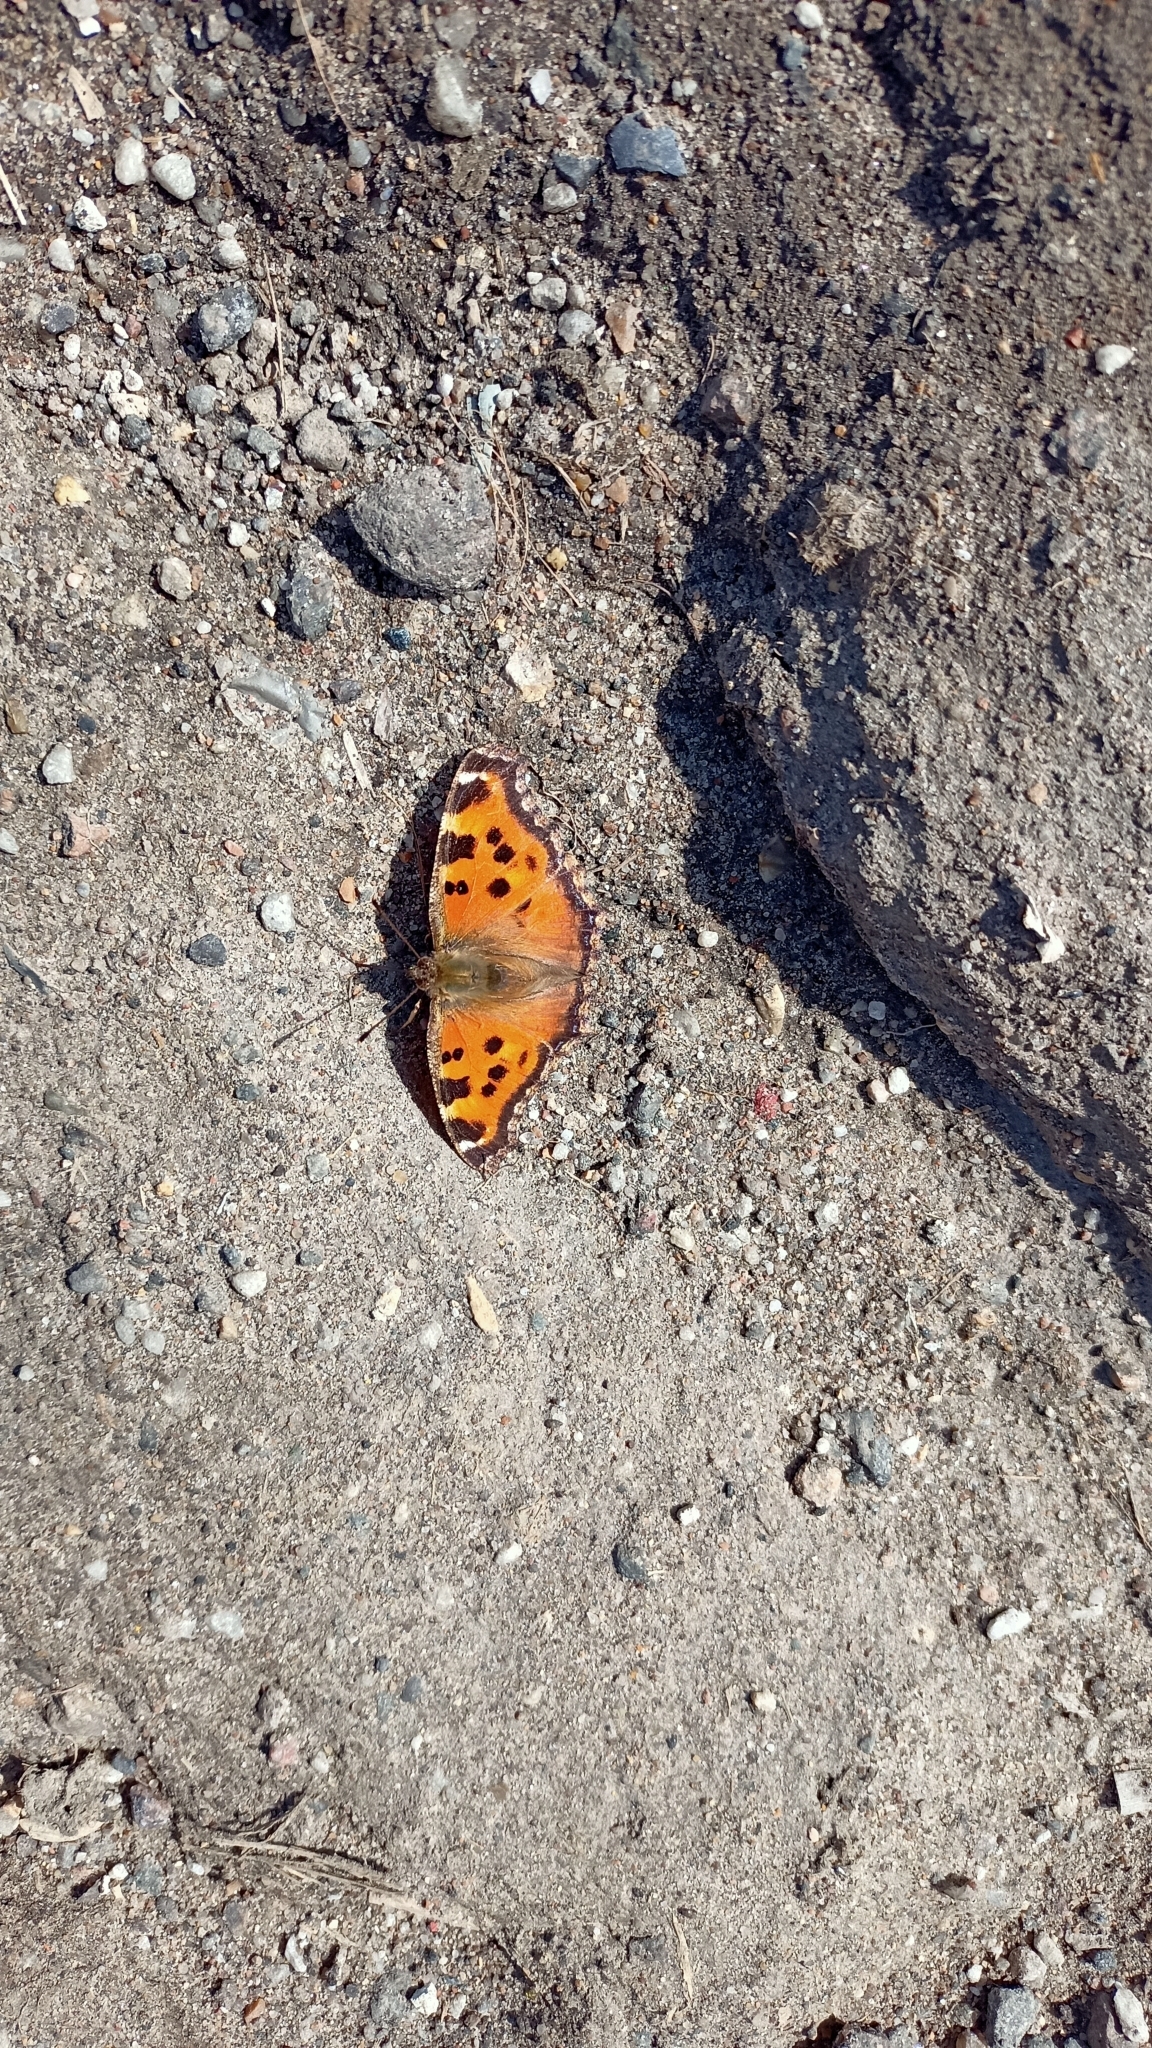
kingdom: Animalia
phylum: Arthropoda
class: Insecta
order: Lepidoptera
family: Nymphalidae
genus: Nymphalis
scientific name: Nymphalis xanthomelas
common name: Scarce tortoiseshell
